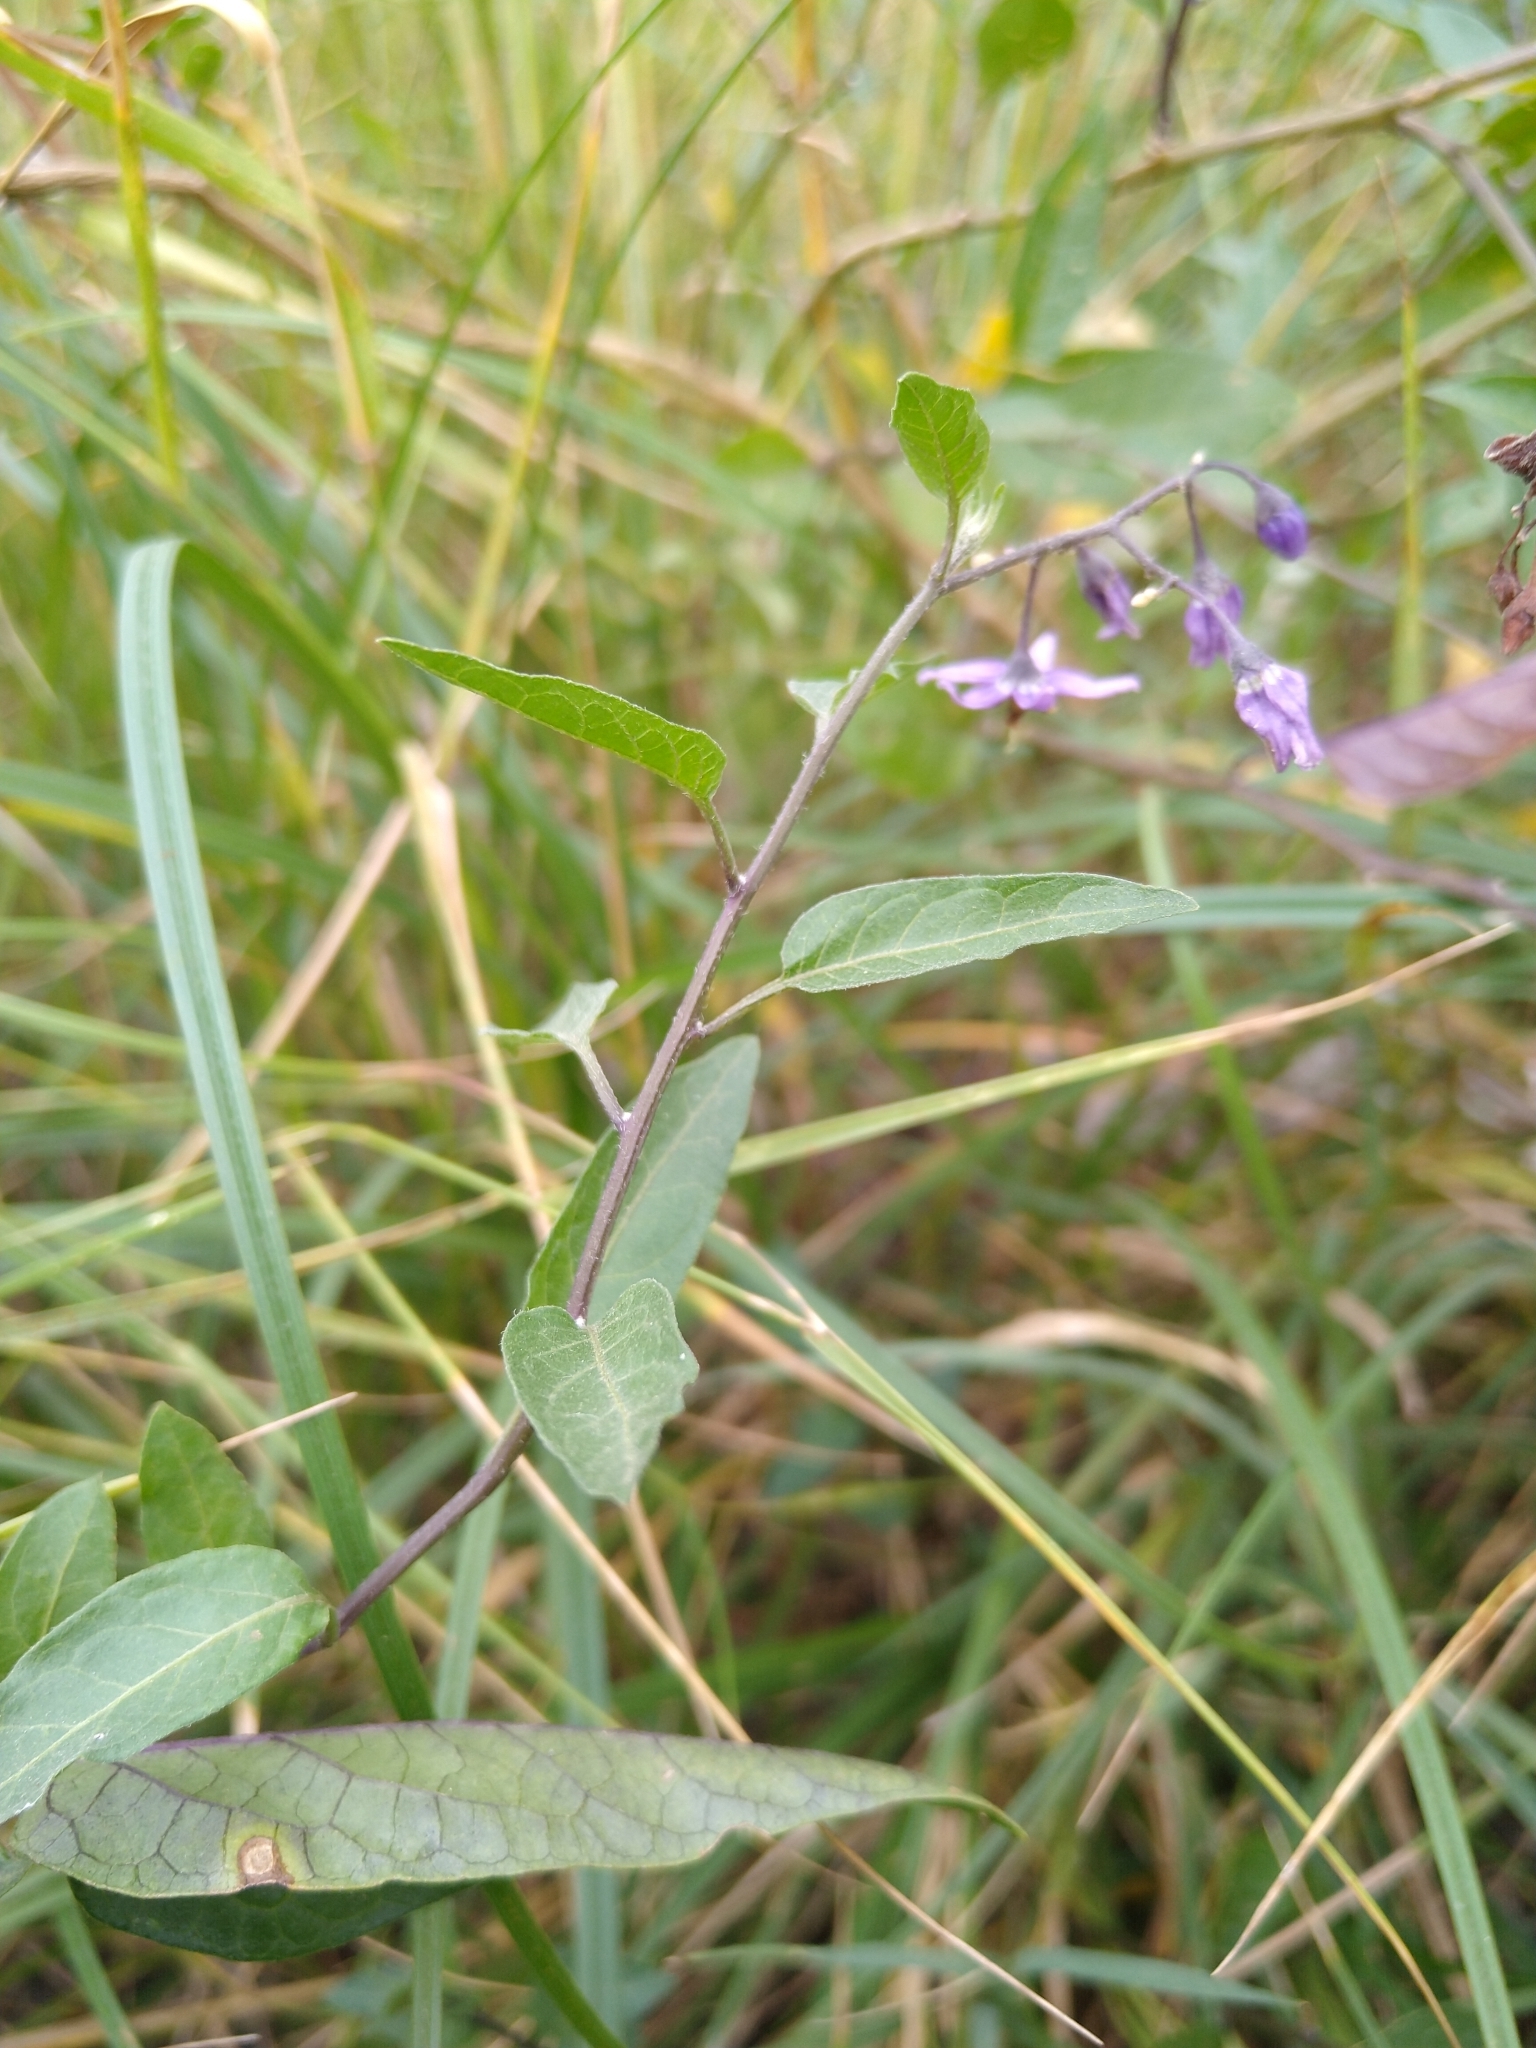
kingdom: Plantae
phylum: Tracheophyta
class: Magnoliopsida
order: Solanales
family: Solanaceae
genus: Solanum
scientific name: Solanum dulcamara
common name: Climbing nightshade
